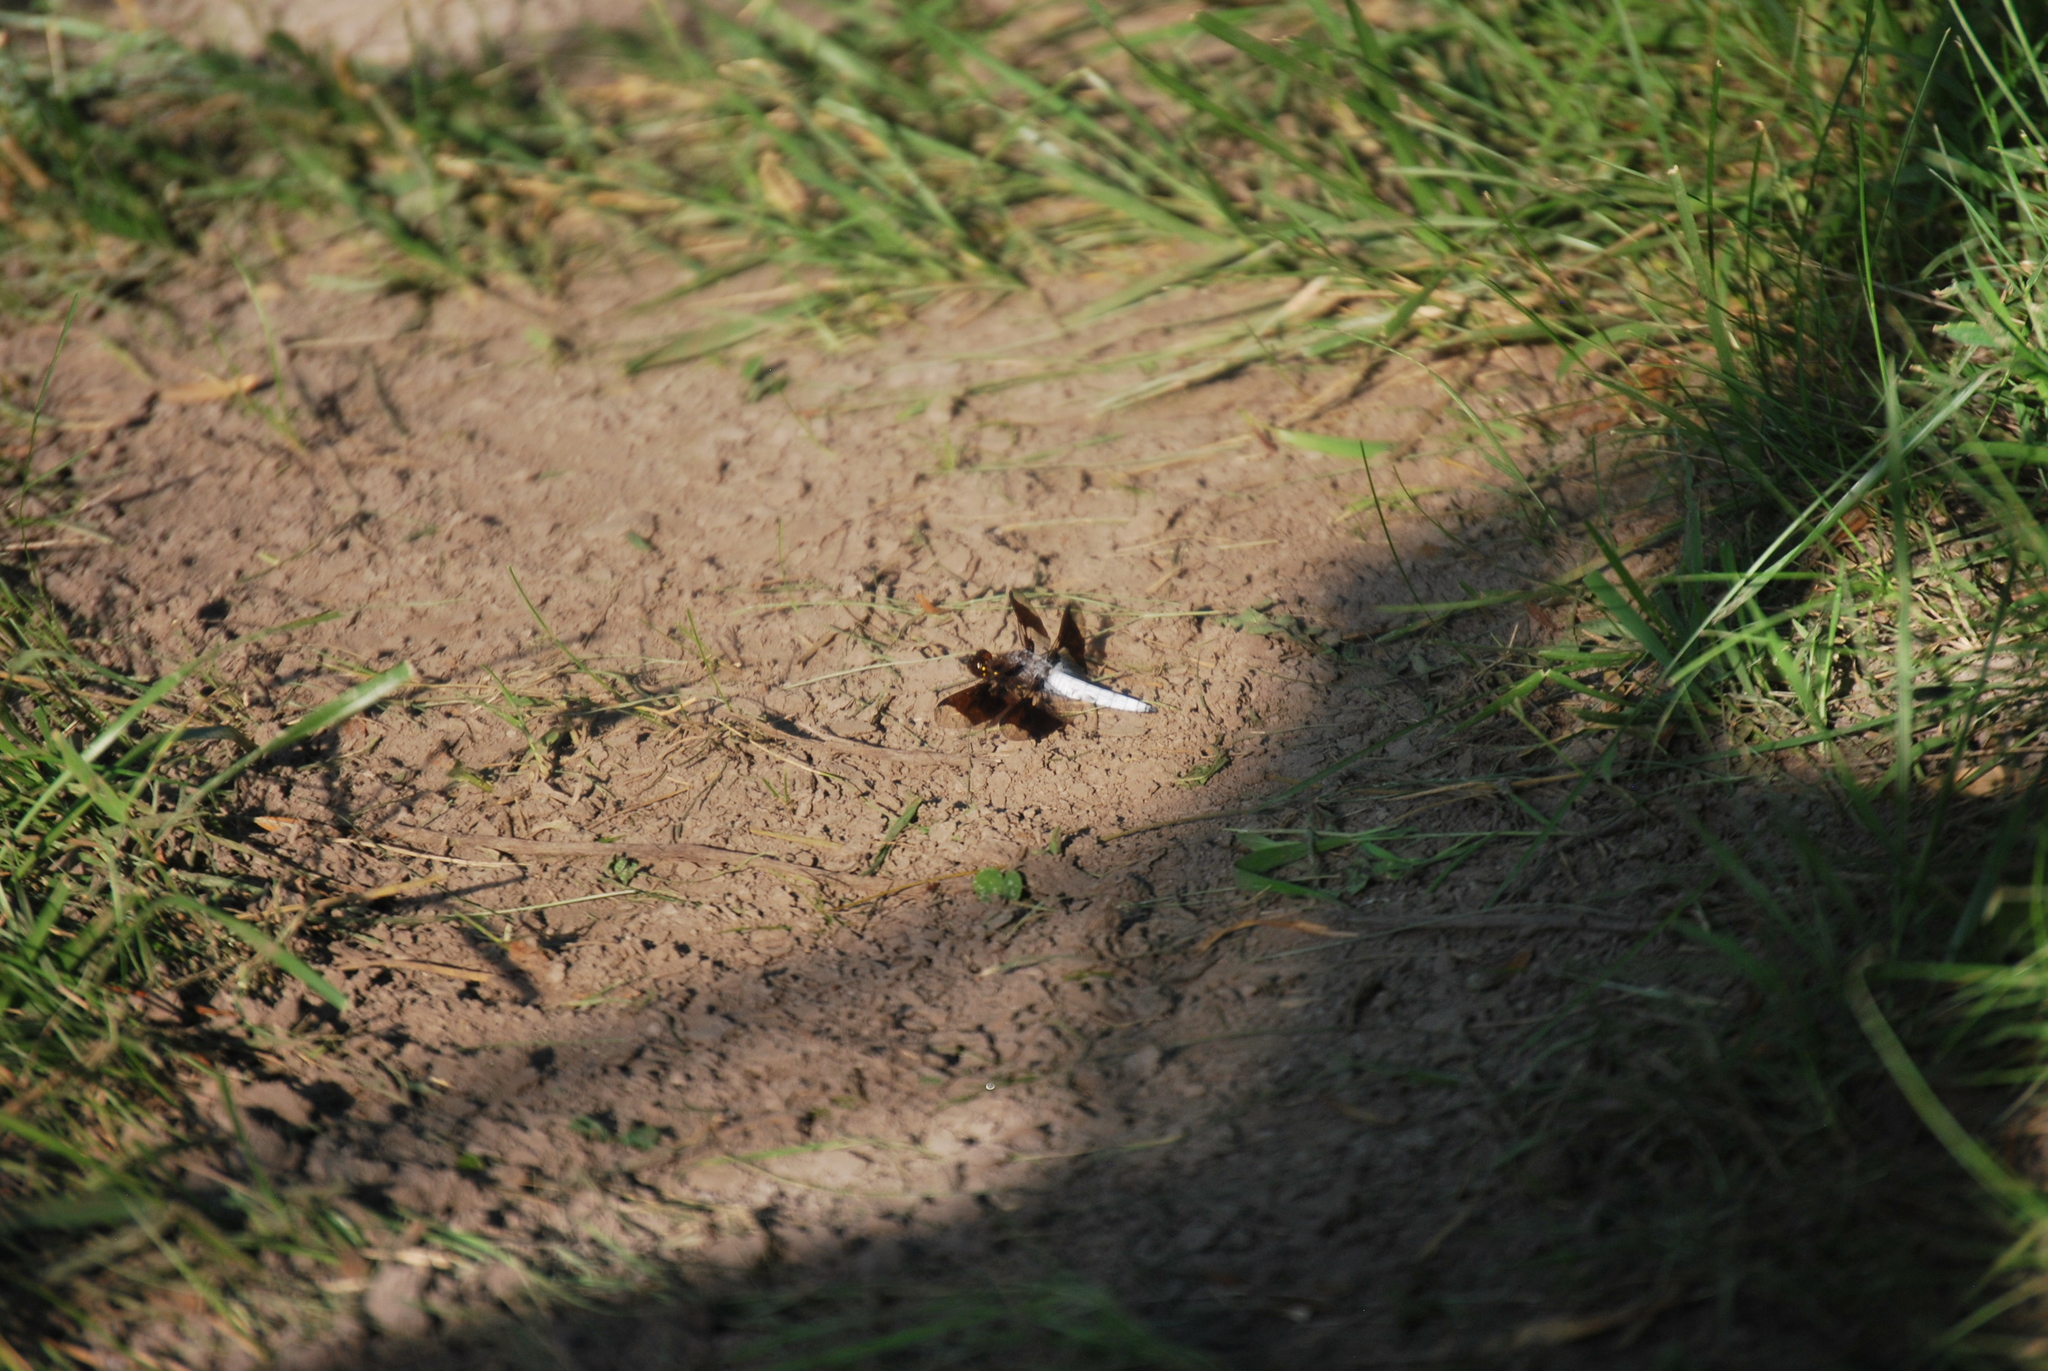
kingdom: Animalia
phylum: Arthropoda
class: Insecta
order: Odonata
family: Libellulidae
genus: Plathemis
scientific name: Plathemis lydia
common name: Common whitetail
